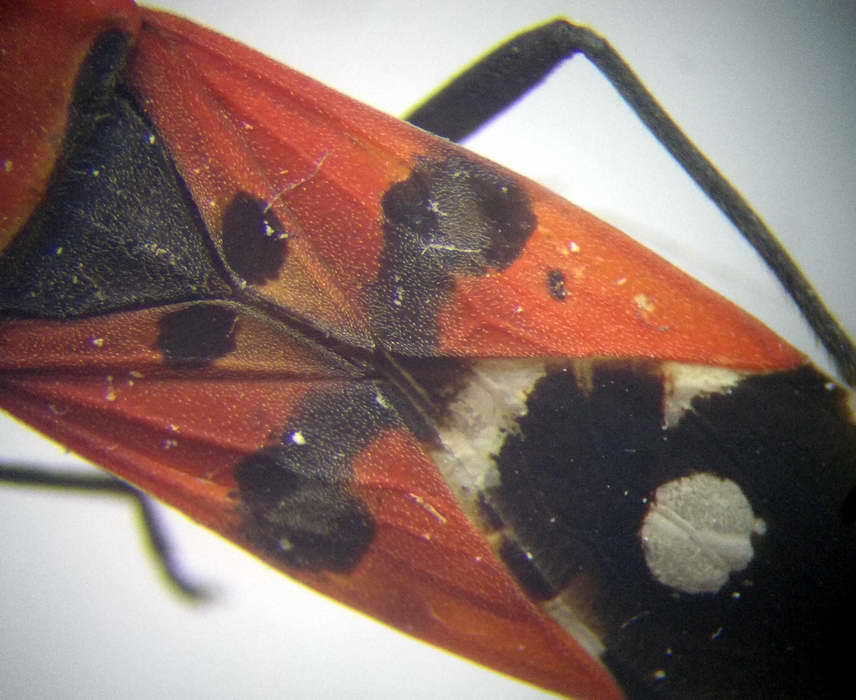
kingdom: Animalia
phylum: Arthropoda
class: Insecta
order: Hemiptera
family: Lygaeidae
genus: Lygaeus
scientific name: Lygaeus simulans
